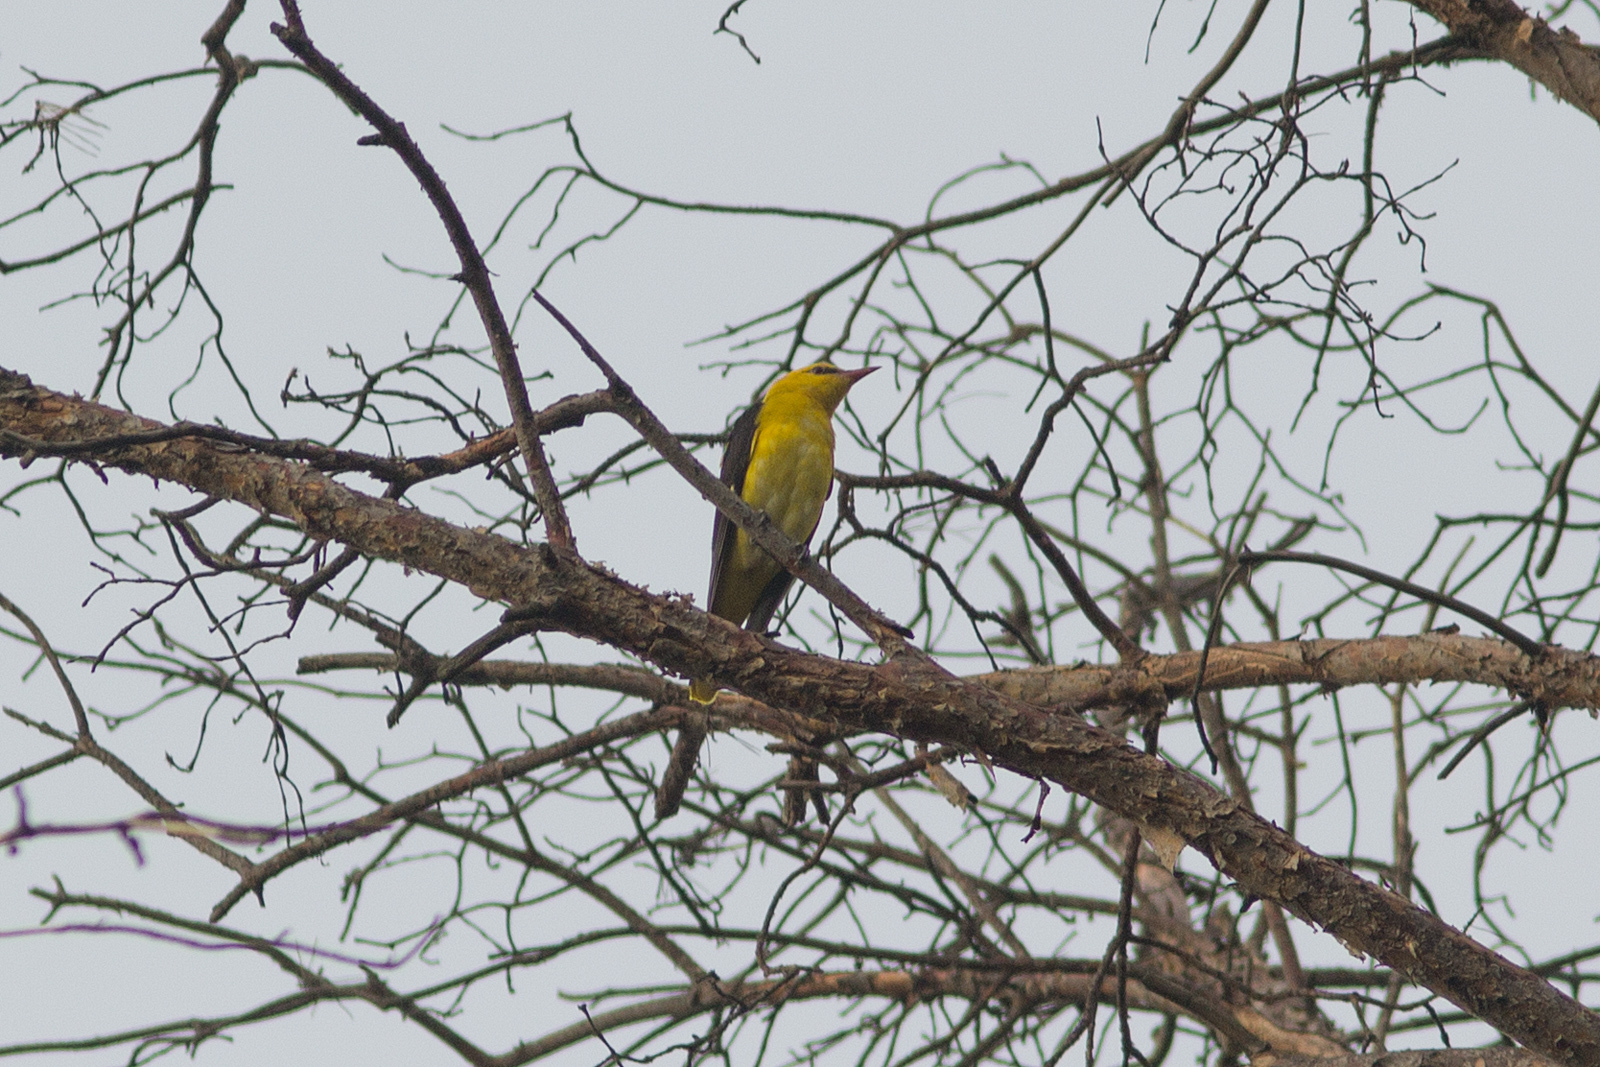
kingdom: Animalia
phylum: Chordata
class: Aves
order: Passeriformes
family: Oriolidae
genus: Oriolus
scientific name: Oriolus oriolus
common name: Eurasian golden oriole
